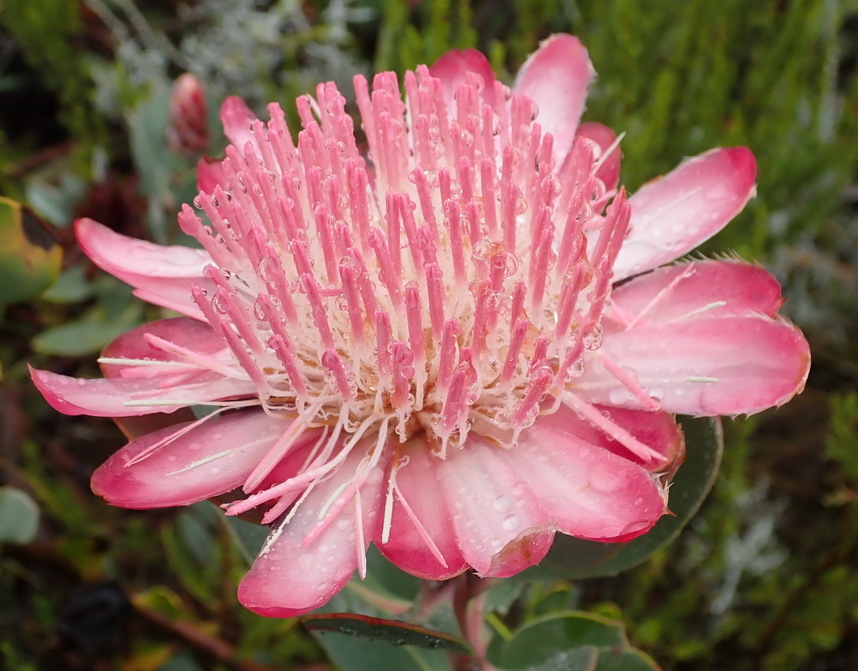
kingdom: Plantae
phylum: Tracheophyta
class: Magnoliopsida
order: Proteales
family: Proteaceae
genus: Protea
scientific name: Protea punctata
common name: Water sugarbush
